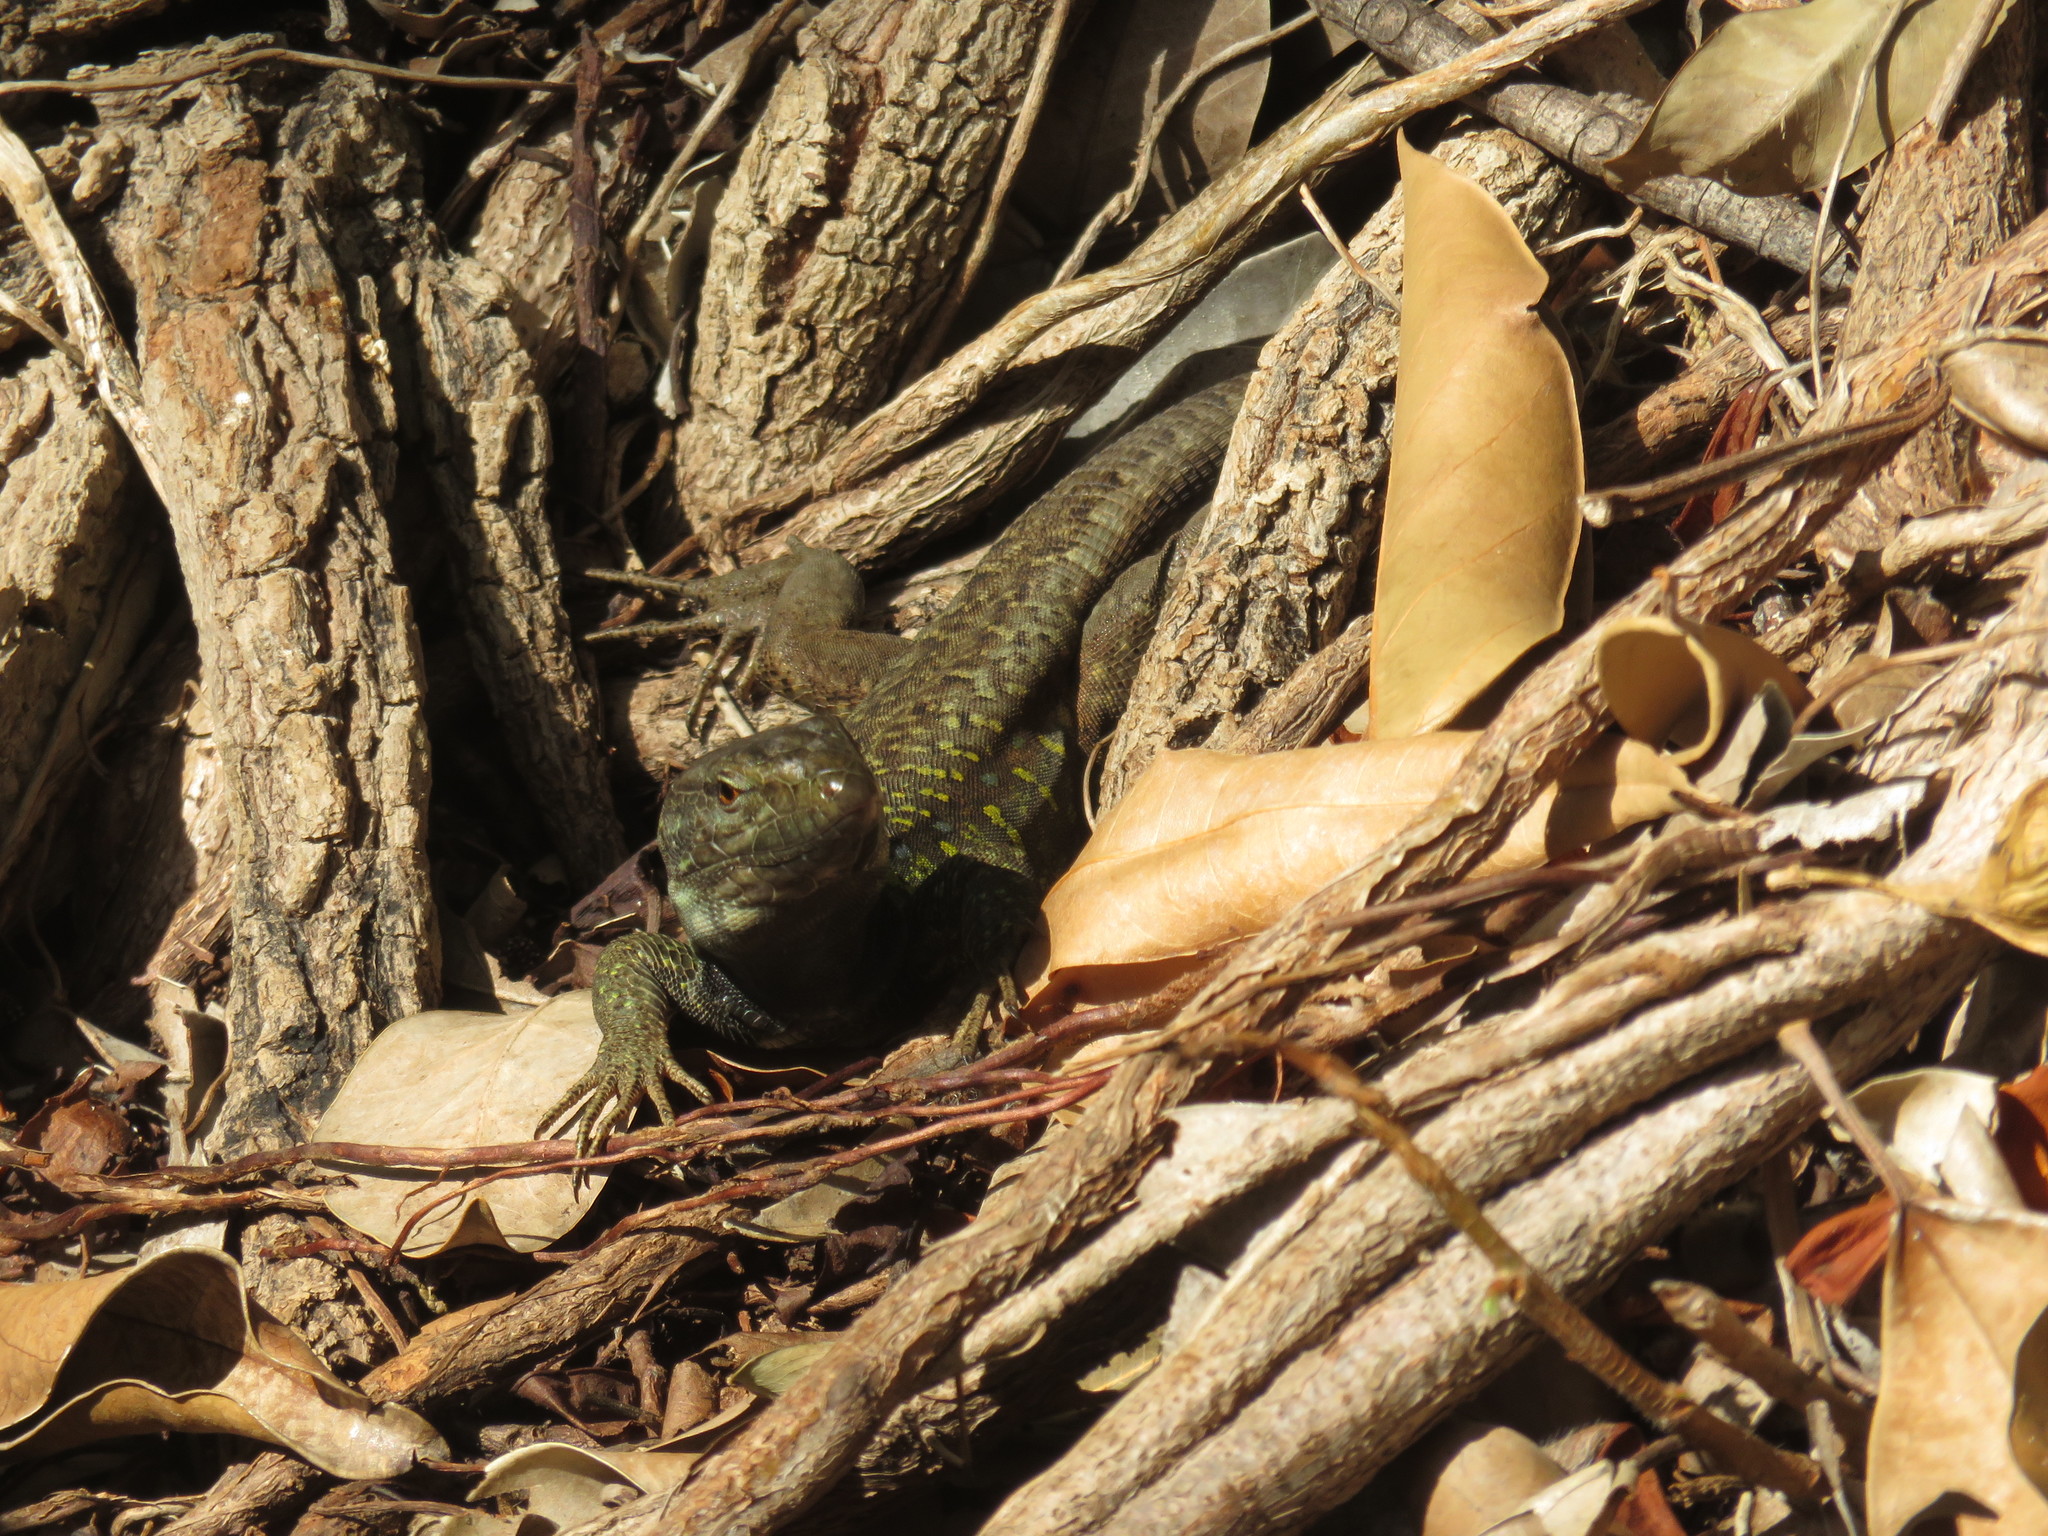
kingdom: Animalia
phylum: Chordata
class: Squamata
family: Lacertidae
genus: Gallotia
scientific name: Gallotia galloti
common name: Gallot's lizard
